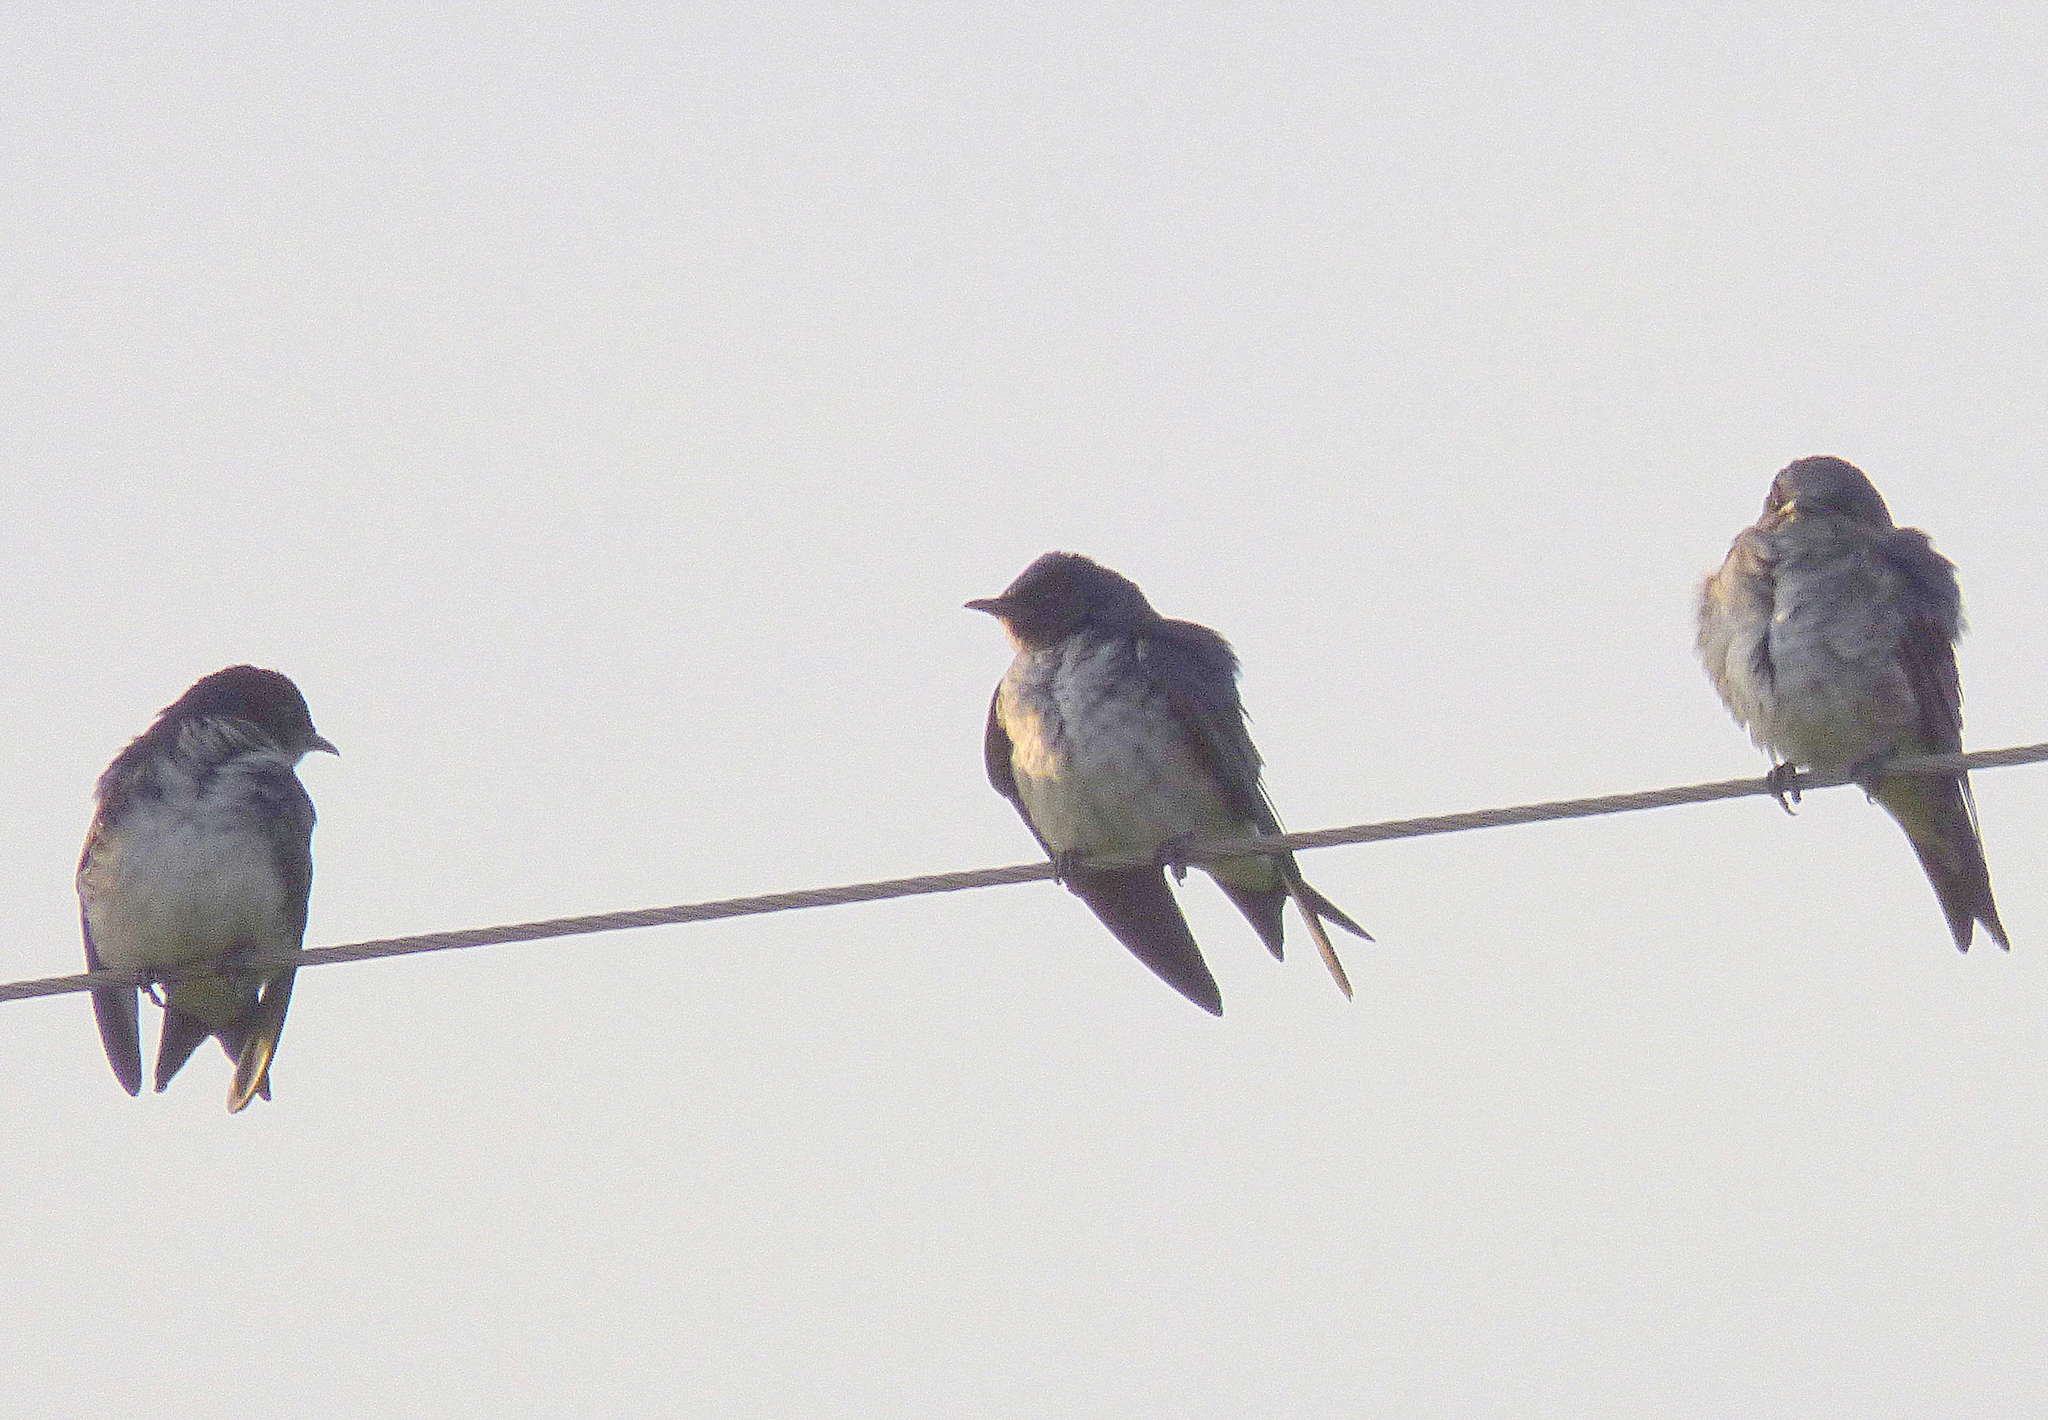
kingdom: Animalia
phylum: Chordata
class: Aves
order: Passeriformes
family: Hirundinidae
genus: Progne
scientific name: Progne chalybea
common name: Grey-breasted martin
